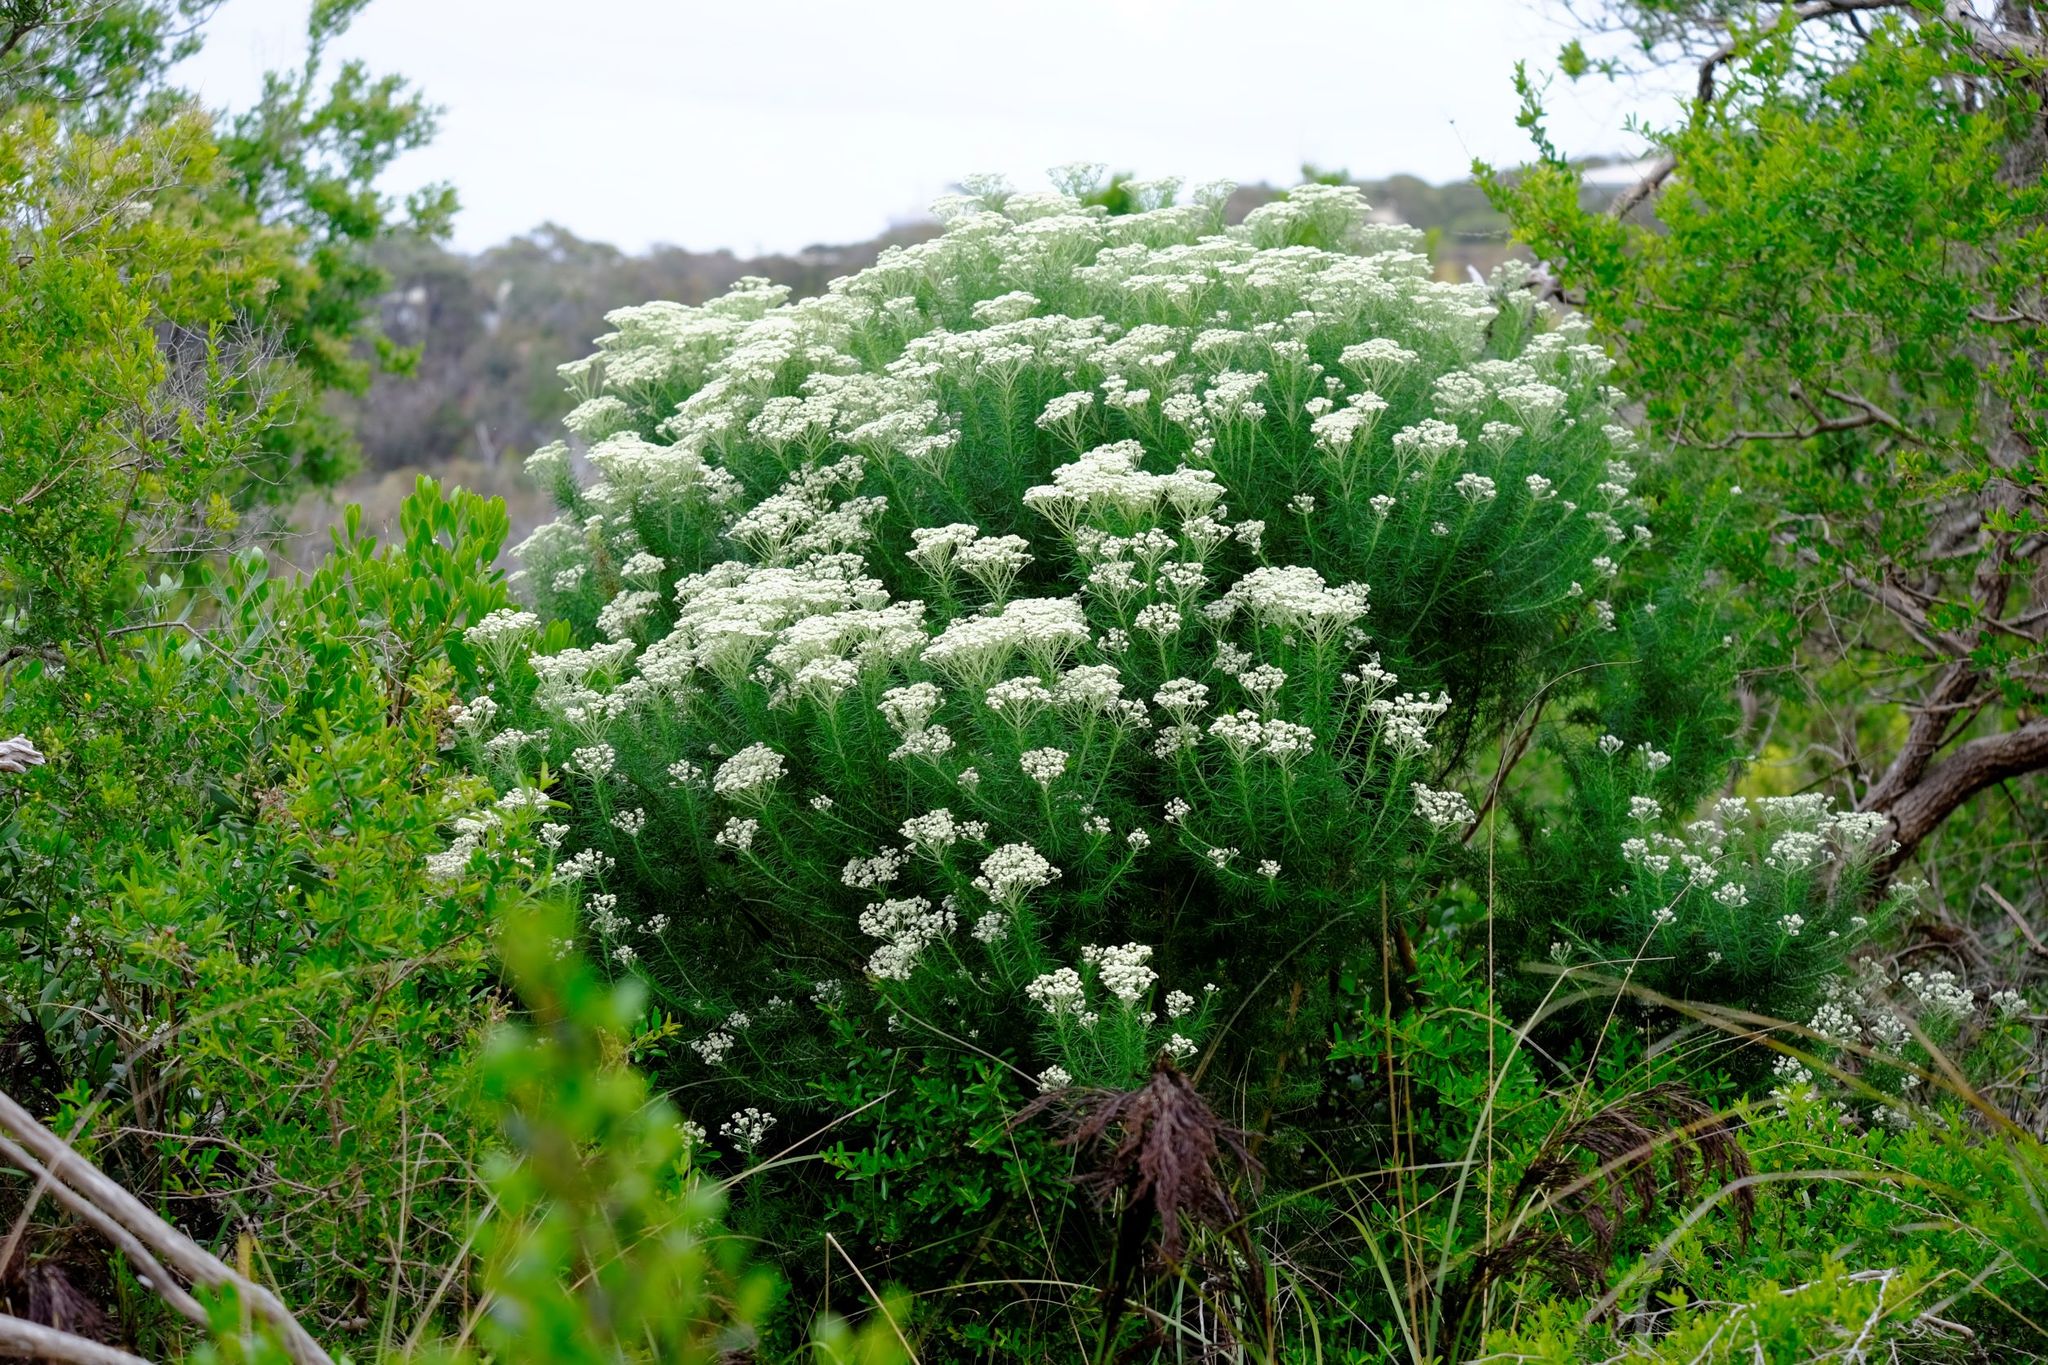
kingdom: Plantae
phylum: Tracheophyta
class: Magnoliopsida
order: Asterales
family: Asteraceae
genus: Cassinia
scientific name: Cassinia aculeata
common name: Australian tauhinu
